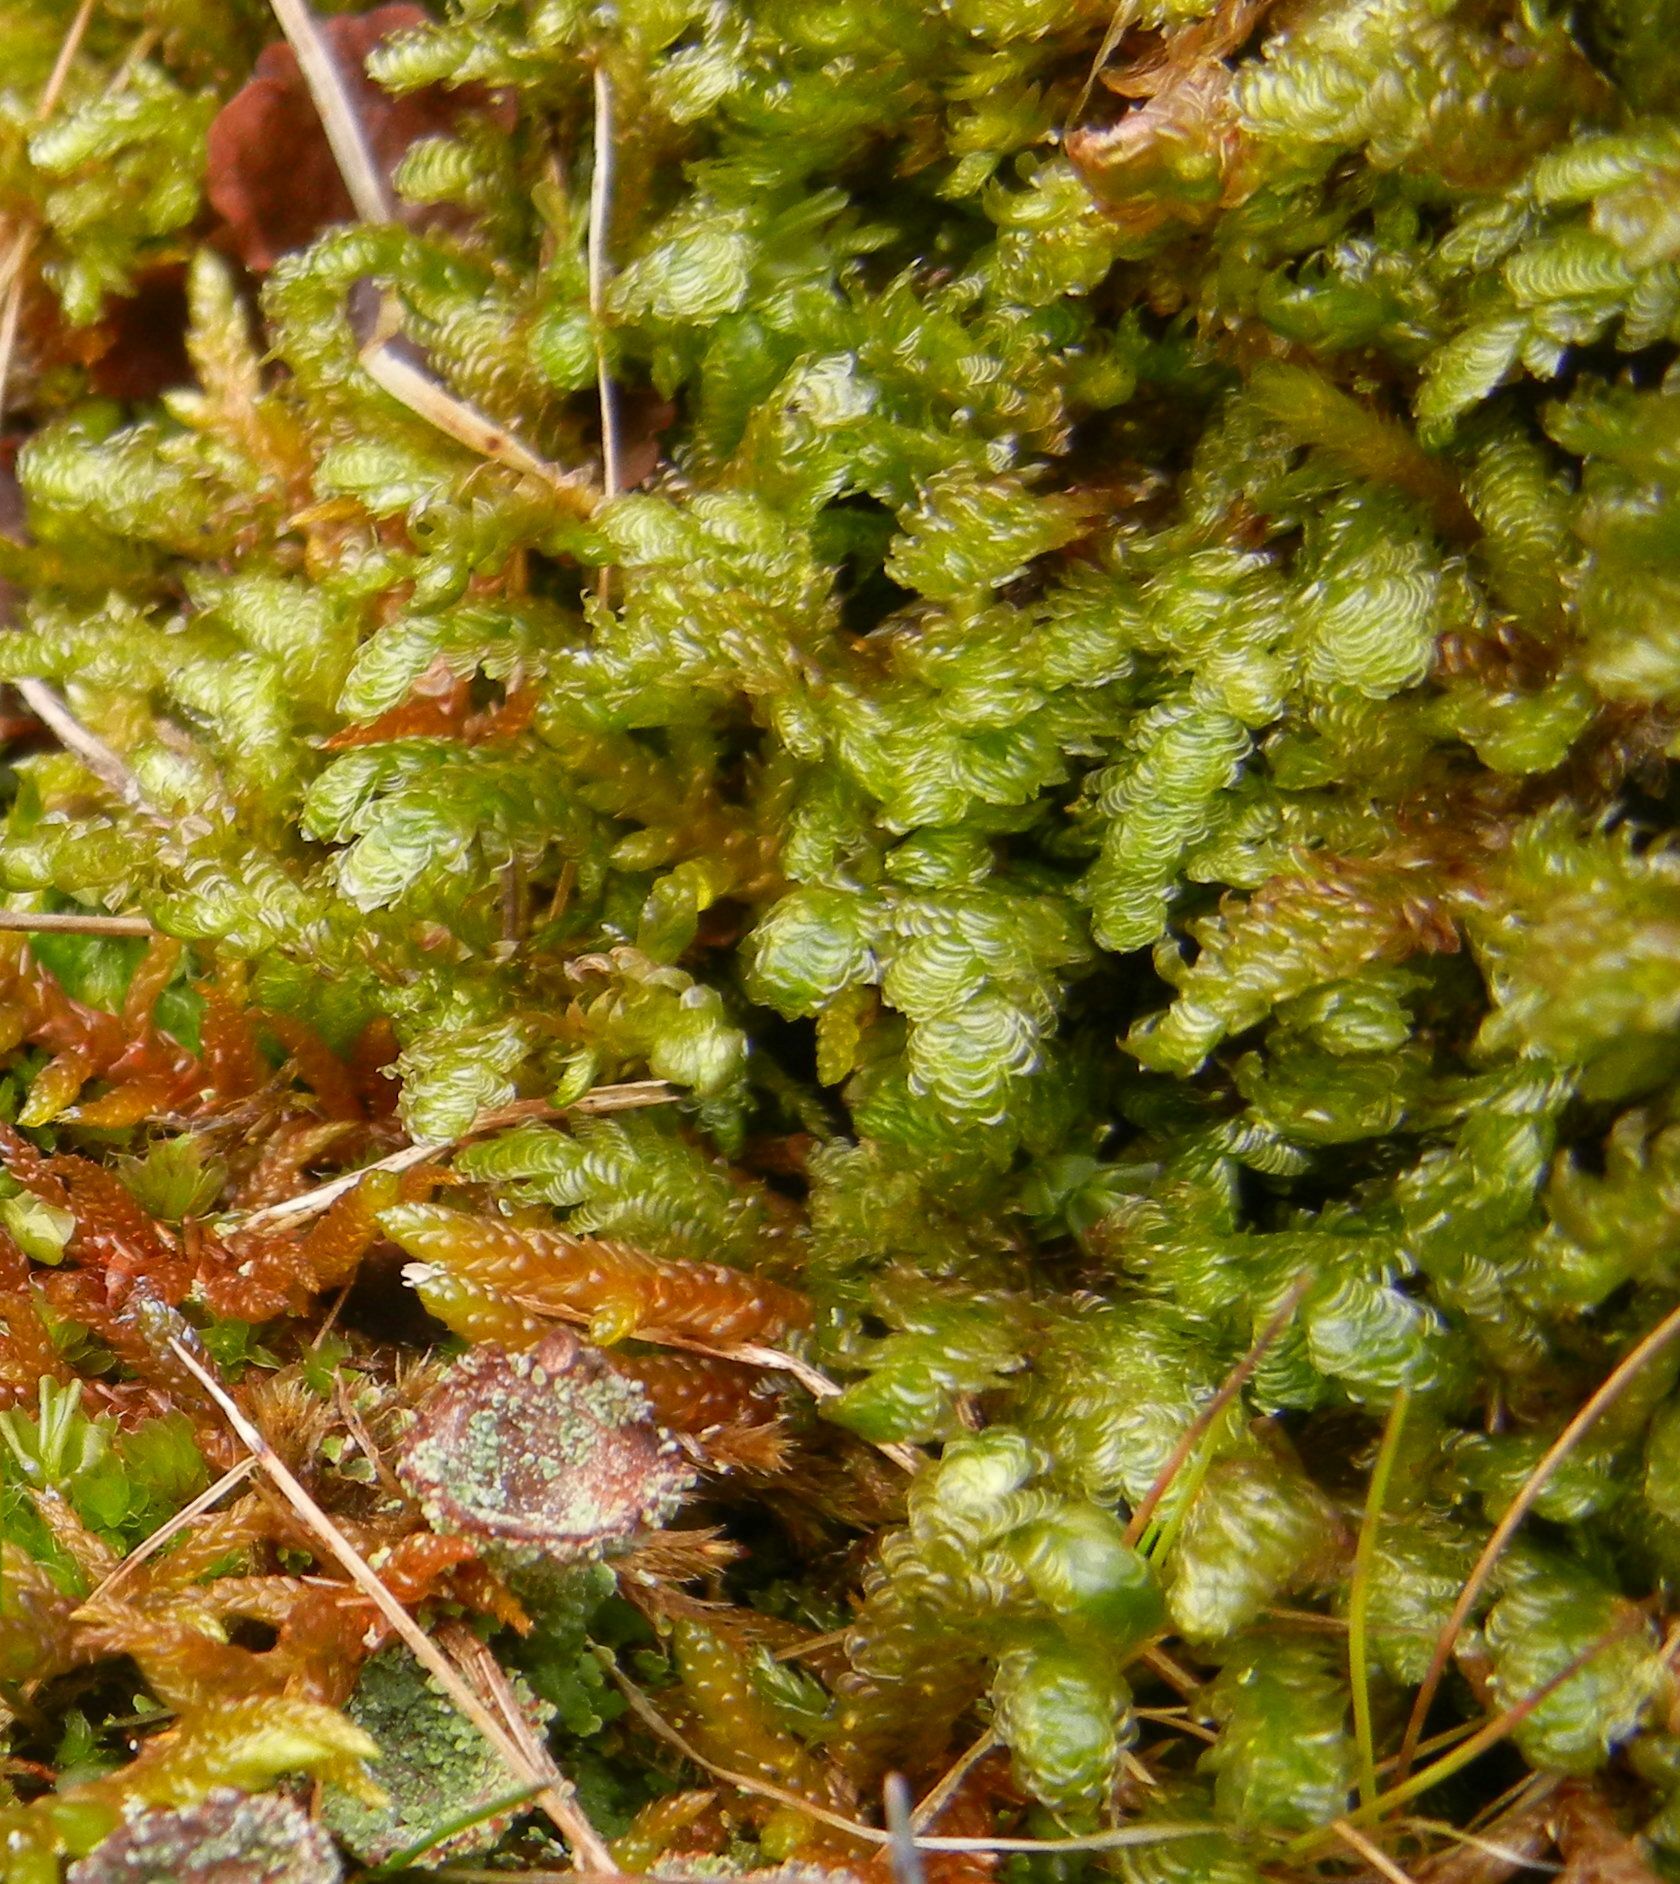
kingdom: Plantae
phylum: Bryophyta
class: Bryopsida
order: Hypnales
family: Neckeraceae
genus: Exsertotheca
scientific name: Exsertotheca crispa
